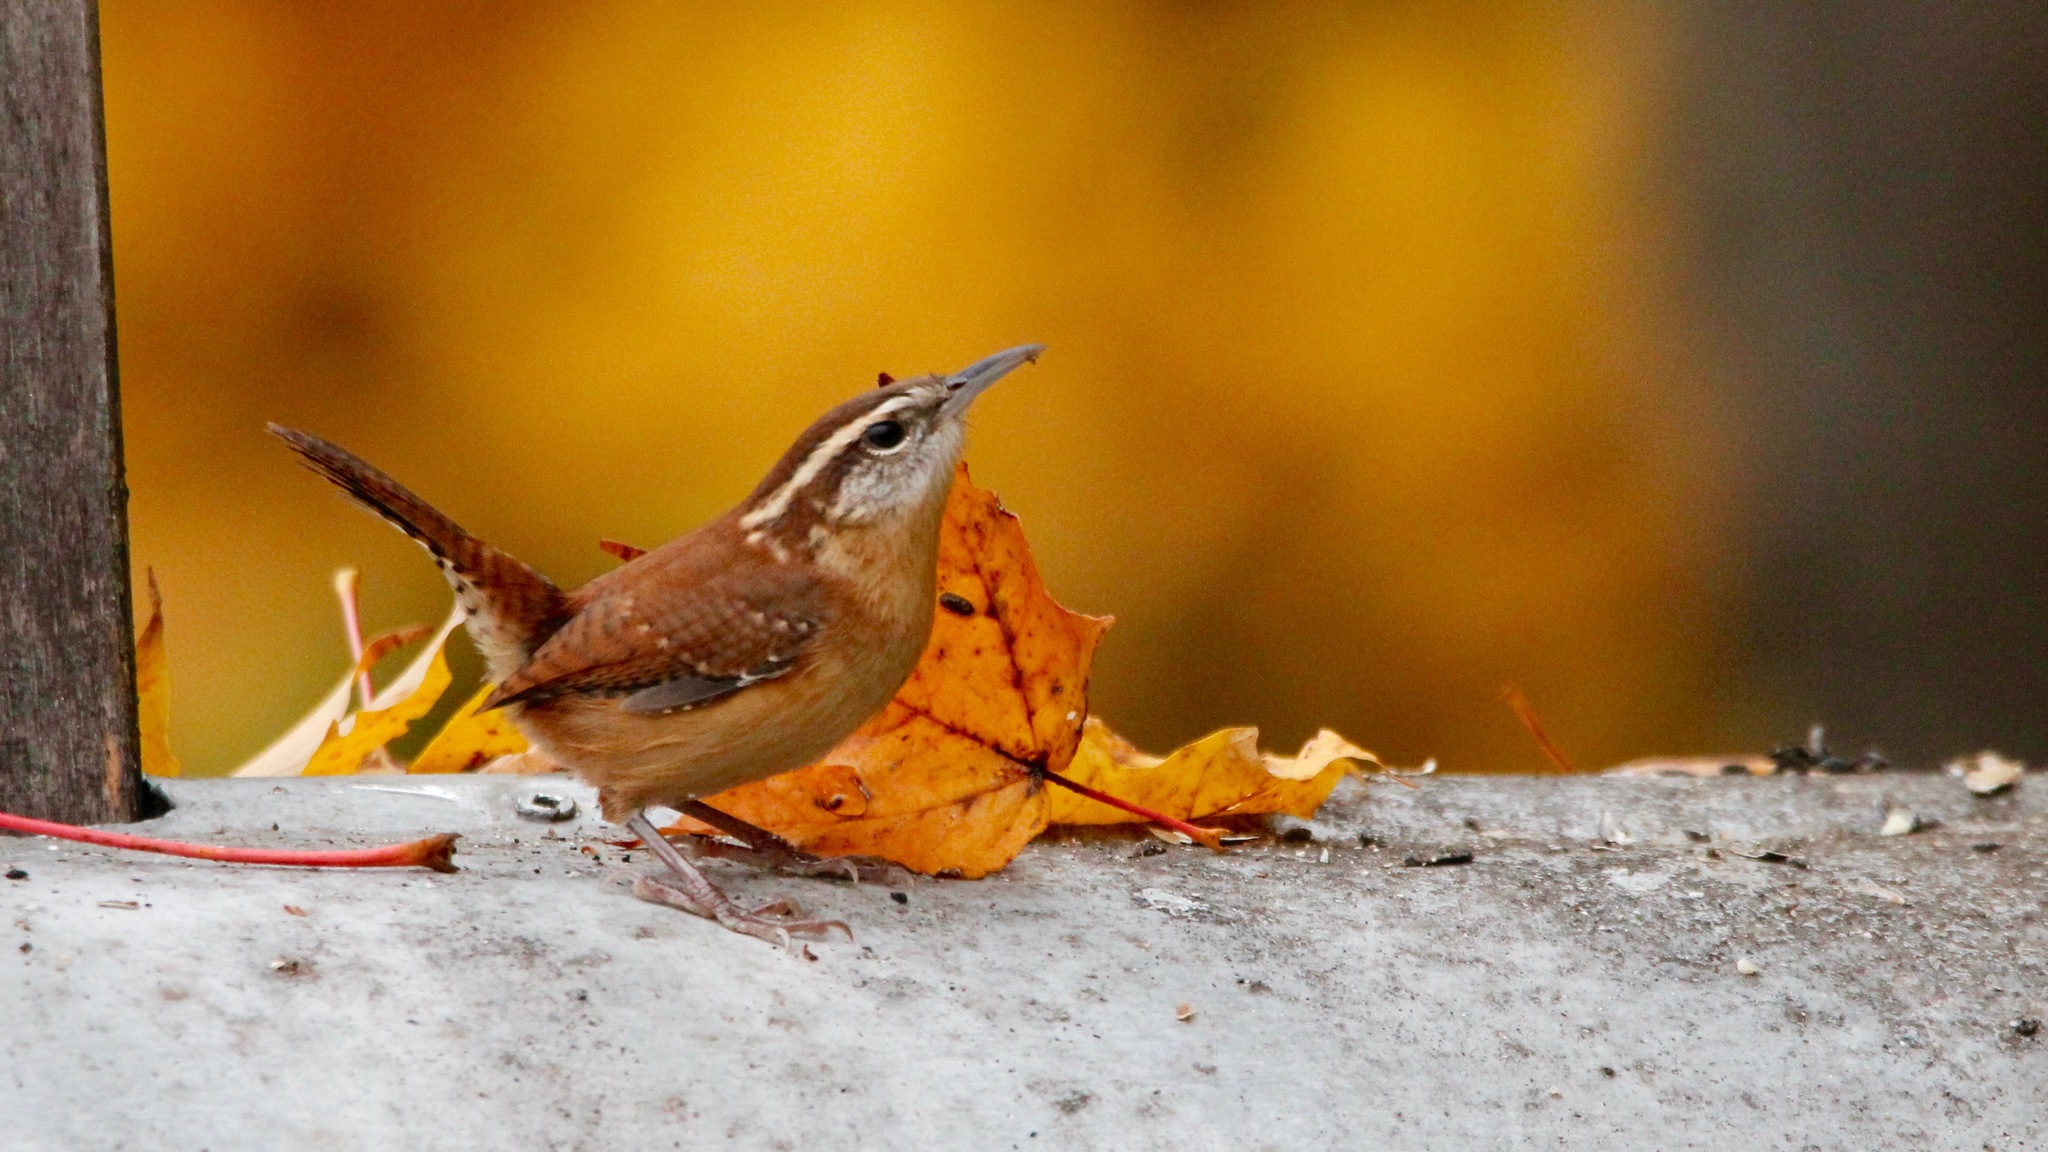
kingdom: Animalia
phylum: Chordata
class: Aves
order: Passeriformes
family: Troglodytidae
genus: Thryothorus
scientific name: Thryothorus ludovicianus
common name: Carolina wren
